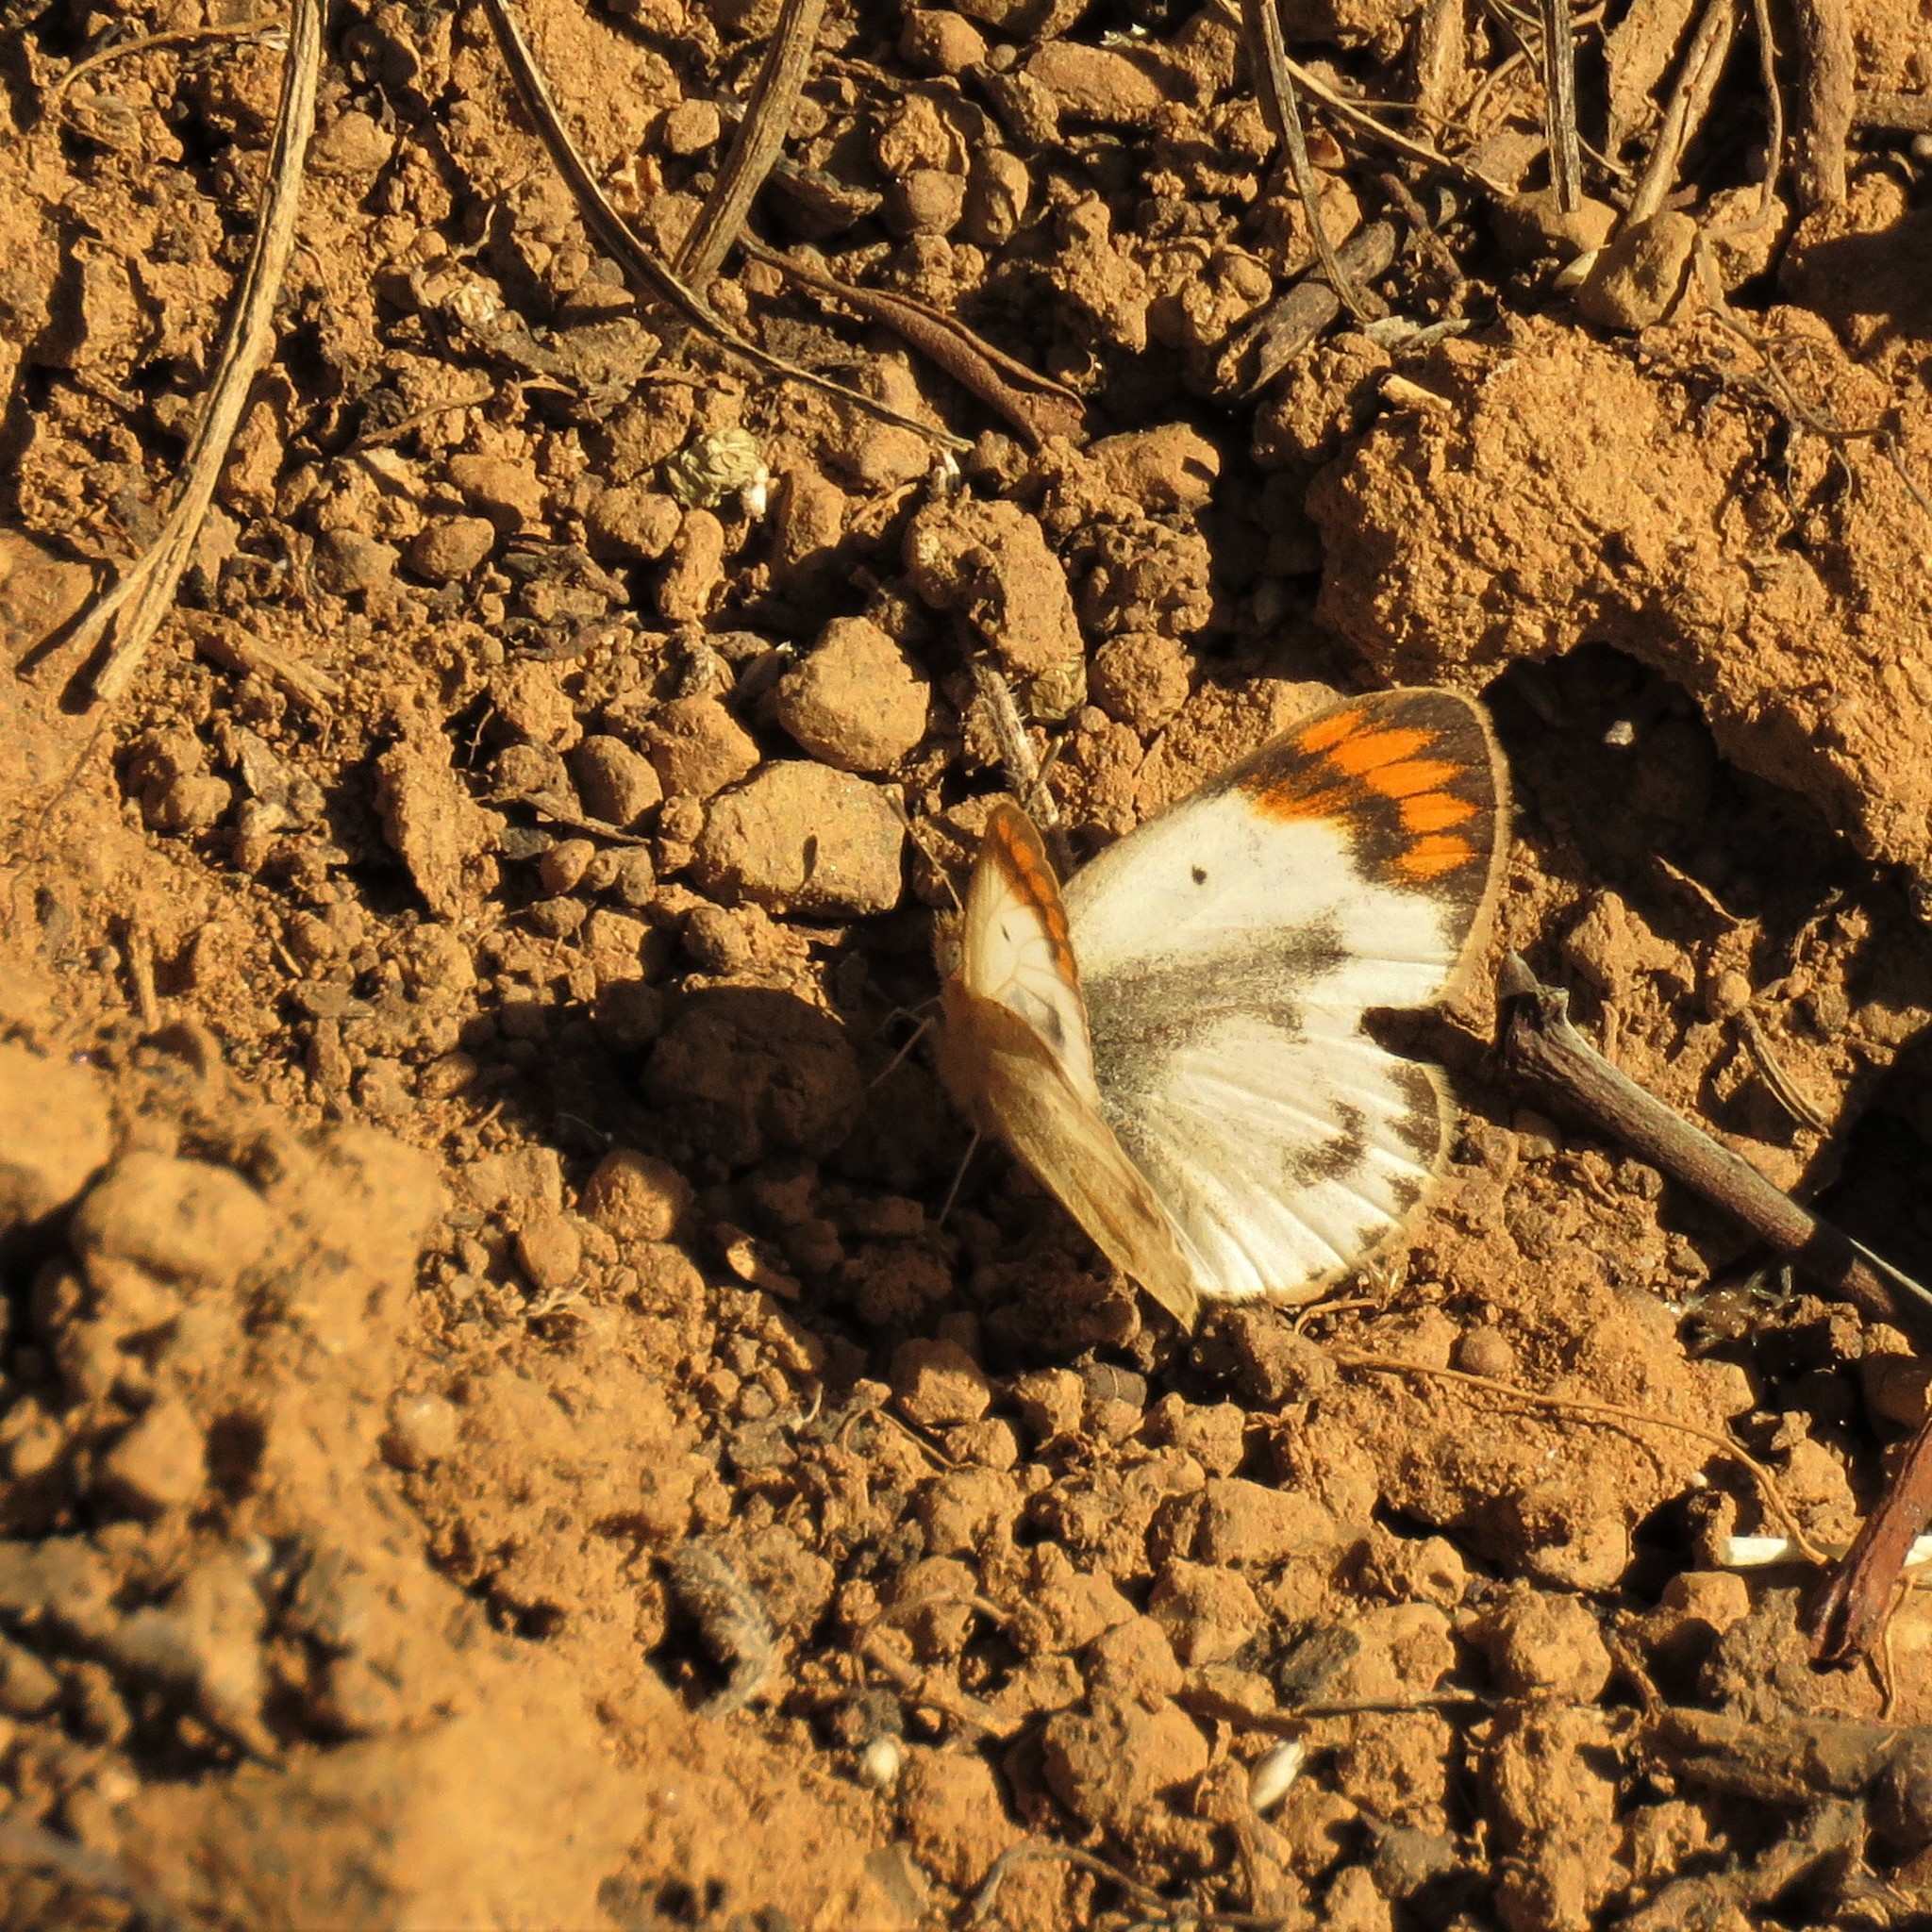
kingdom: Animalia
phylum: Arthropoda
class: Insecta
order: Lepidoptera
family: Pieridae
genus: Colotis
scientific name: Colotis evagore
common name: Desert orange-tip
